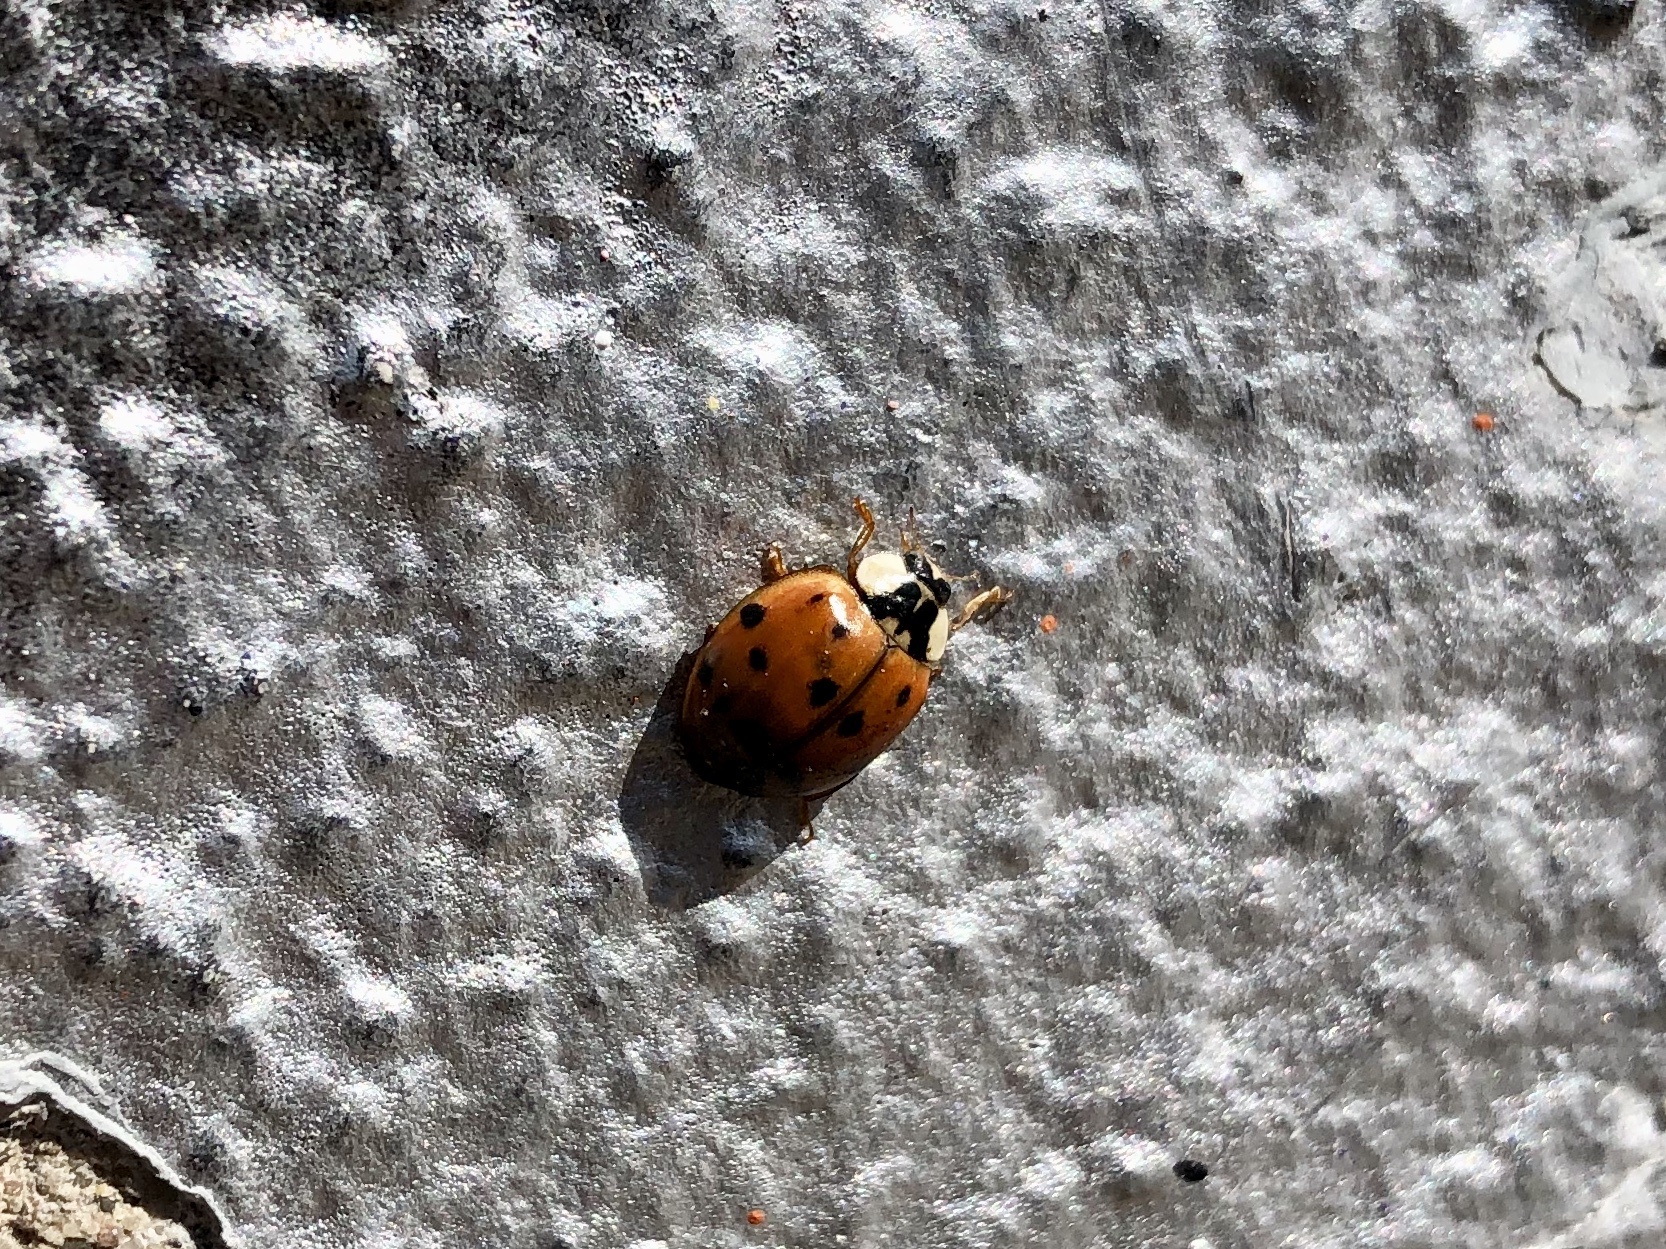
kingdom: Animalia
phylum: Arthropoda
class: Insecta
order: Coleoptera
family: Coccinellidae
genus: Harmonia
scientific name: Harmonia axyridis
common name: Harlequin ladybird
